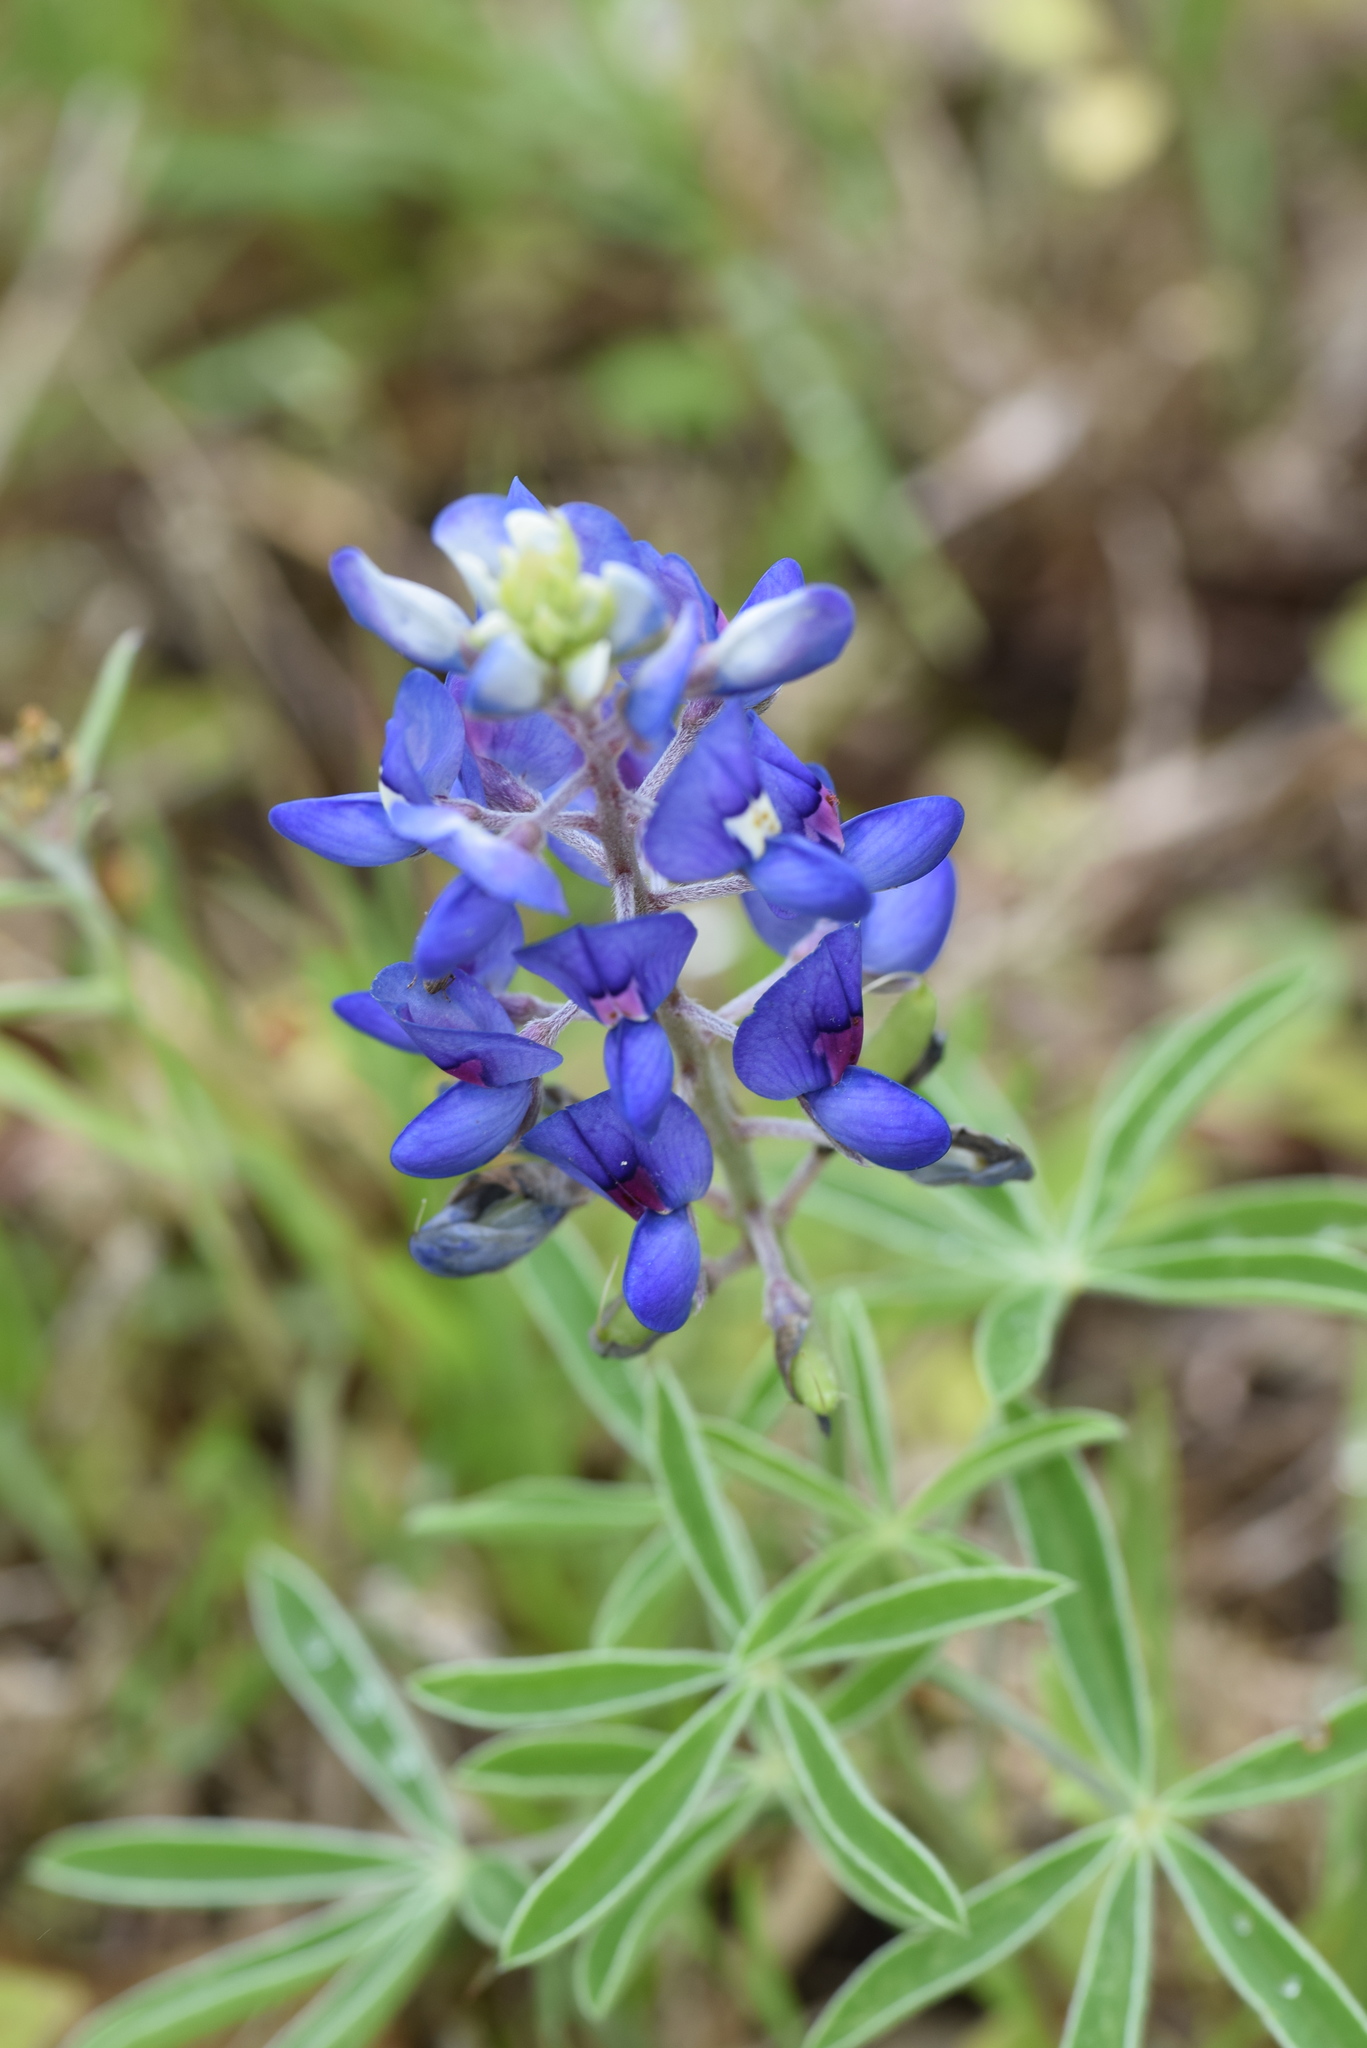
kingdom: Plantae
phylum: Tracheophyta
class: Magnoliopsida
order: Fabales
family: Fabaceae
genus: Lupinus
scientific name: Lupinus texensis
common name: Texas bluebonnet
